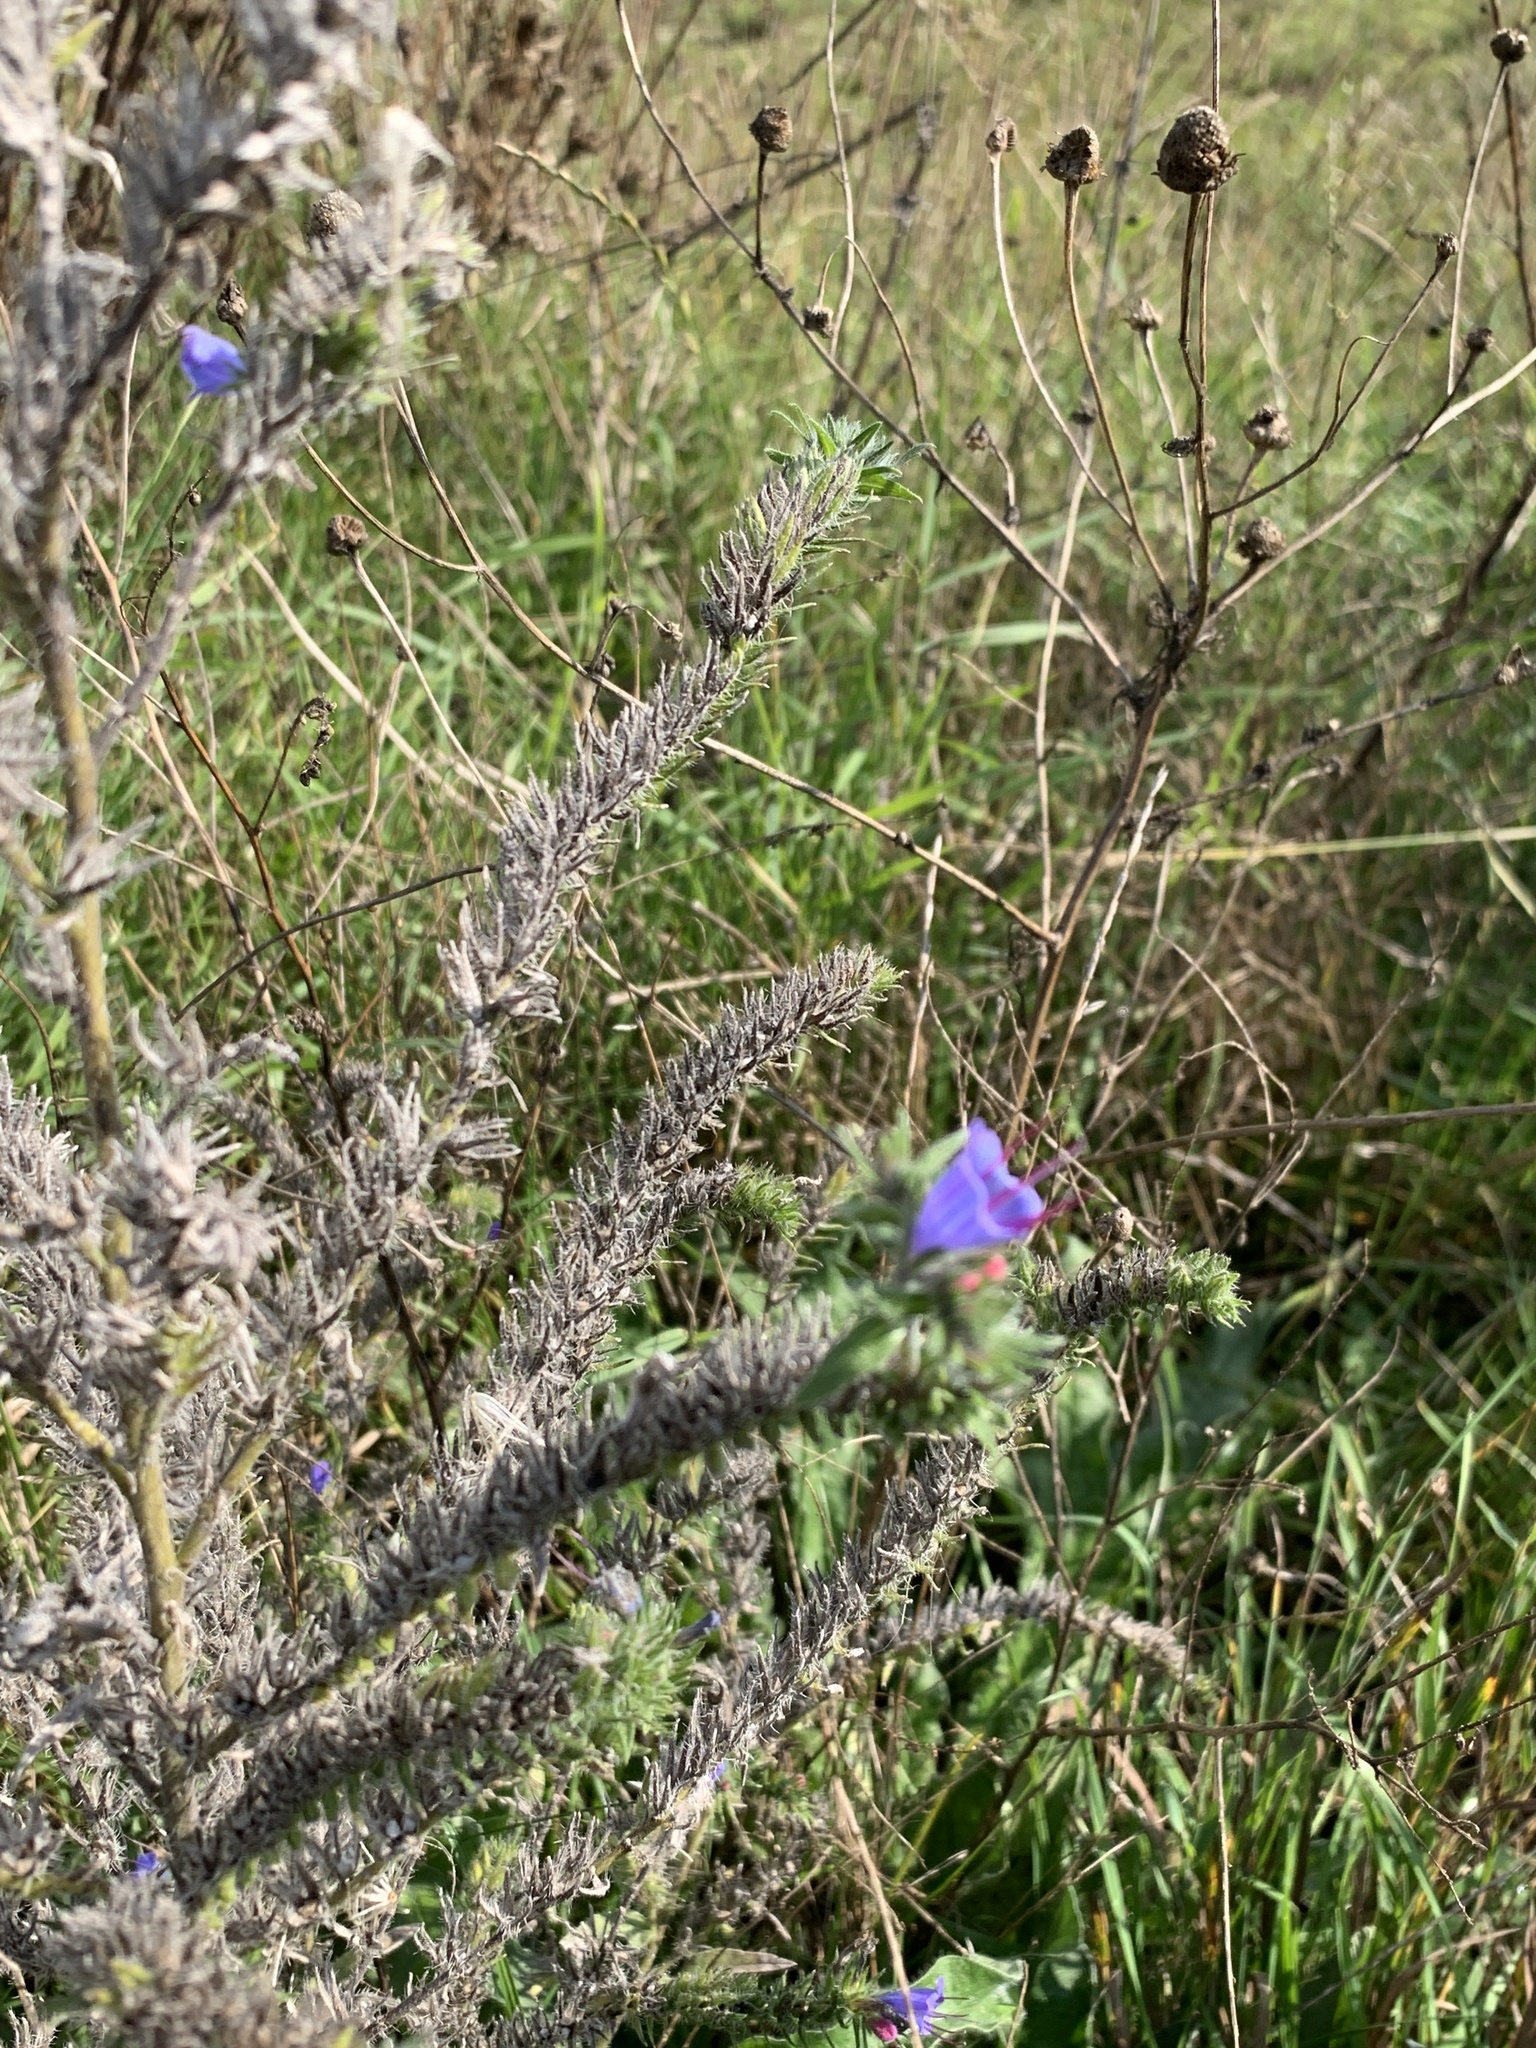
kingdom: Plantae
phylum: Tracheophyta
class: Magnoliopsida
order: Boraginales
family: Boraginaceae
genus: Echium
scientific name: Echium vulgare
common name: Common viper's bugloss
